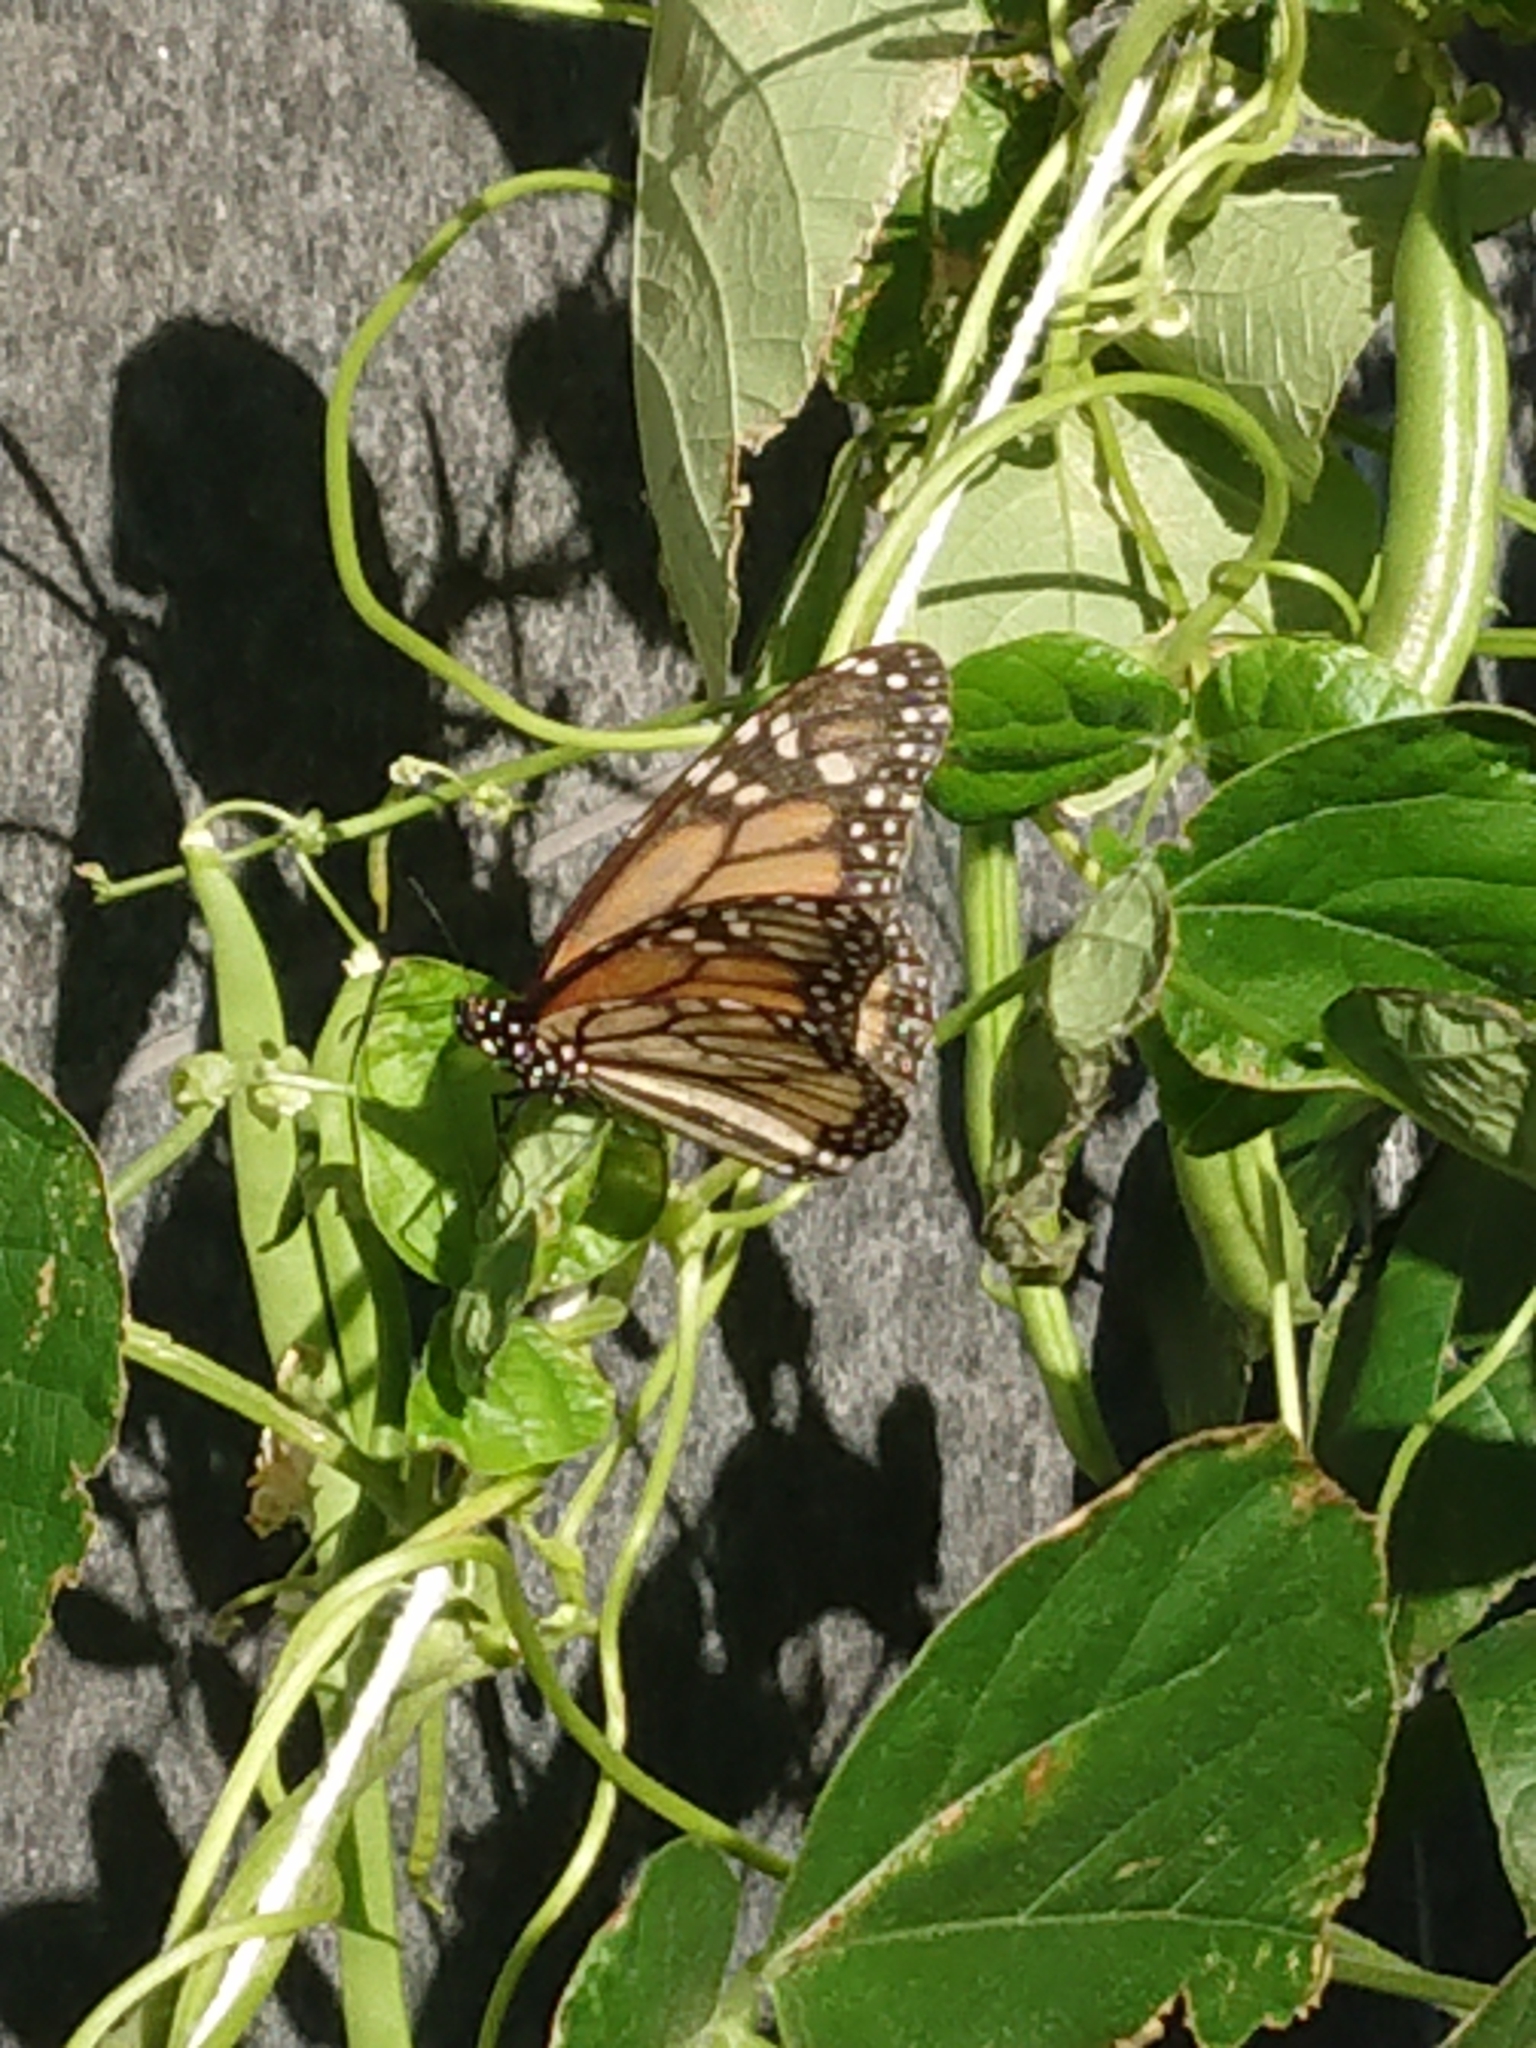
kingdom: Animalia
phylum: Arthropoda
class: Insecta
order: Lepidoptera
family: Nymphalidae
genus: Danaus
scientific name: Danaus plexippus
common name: Monarch
